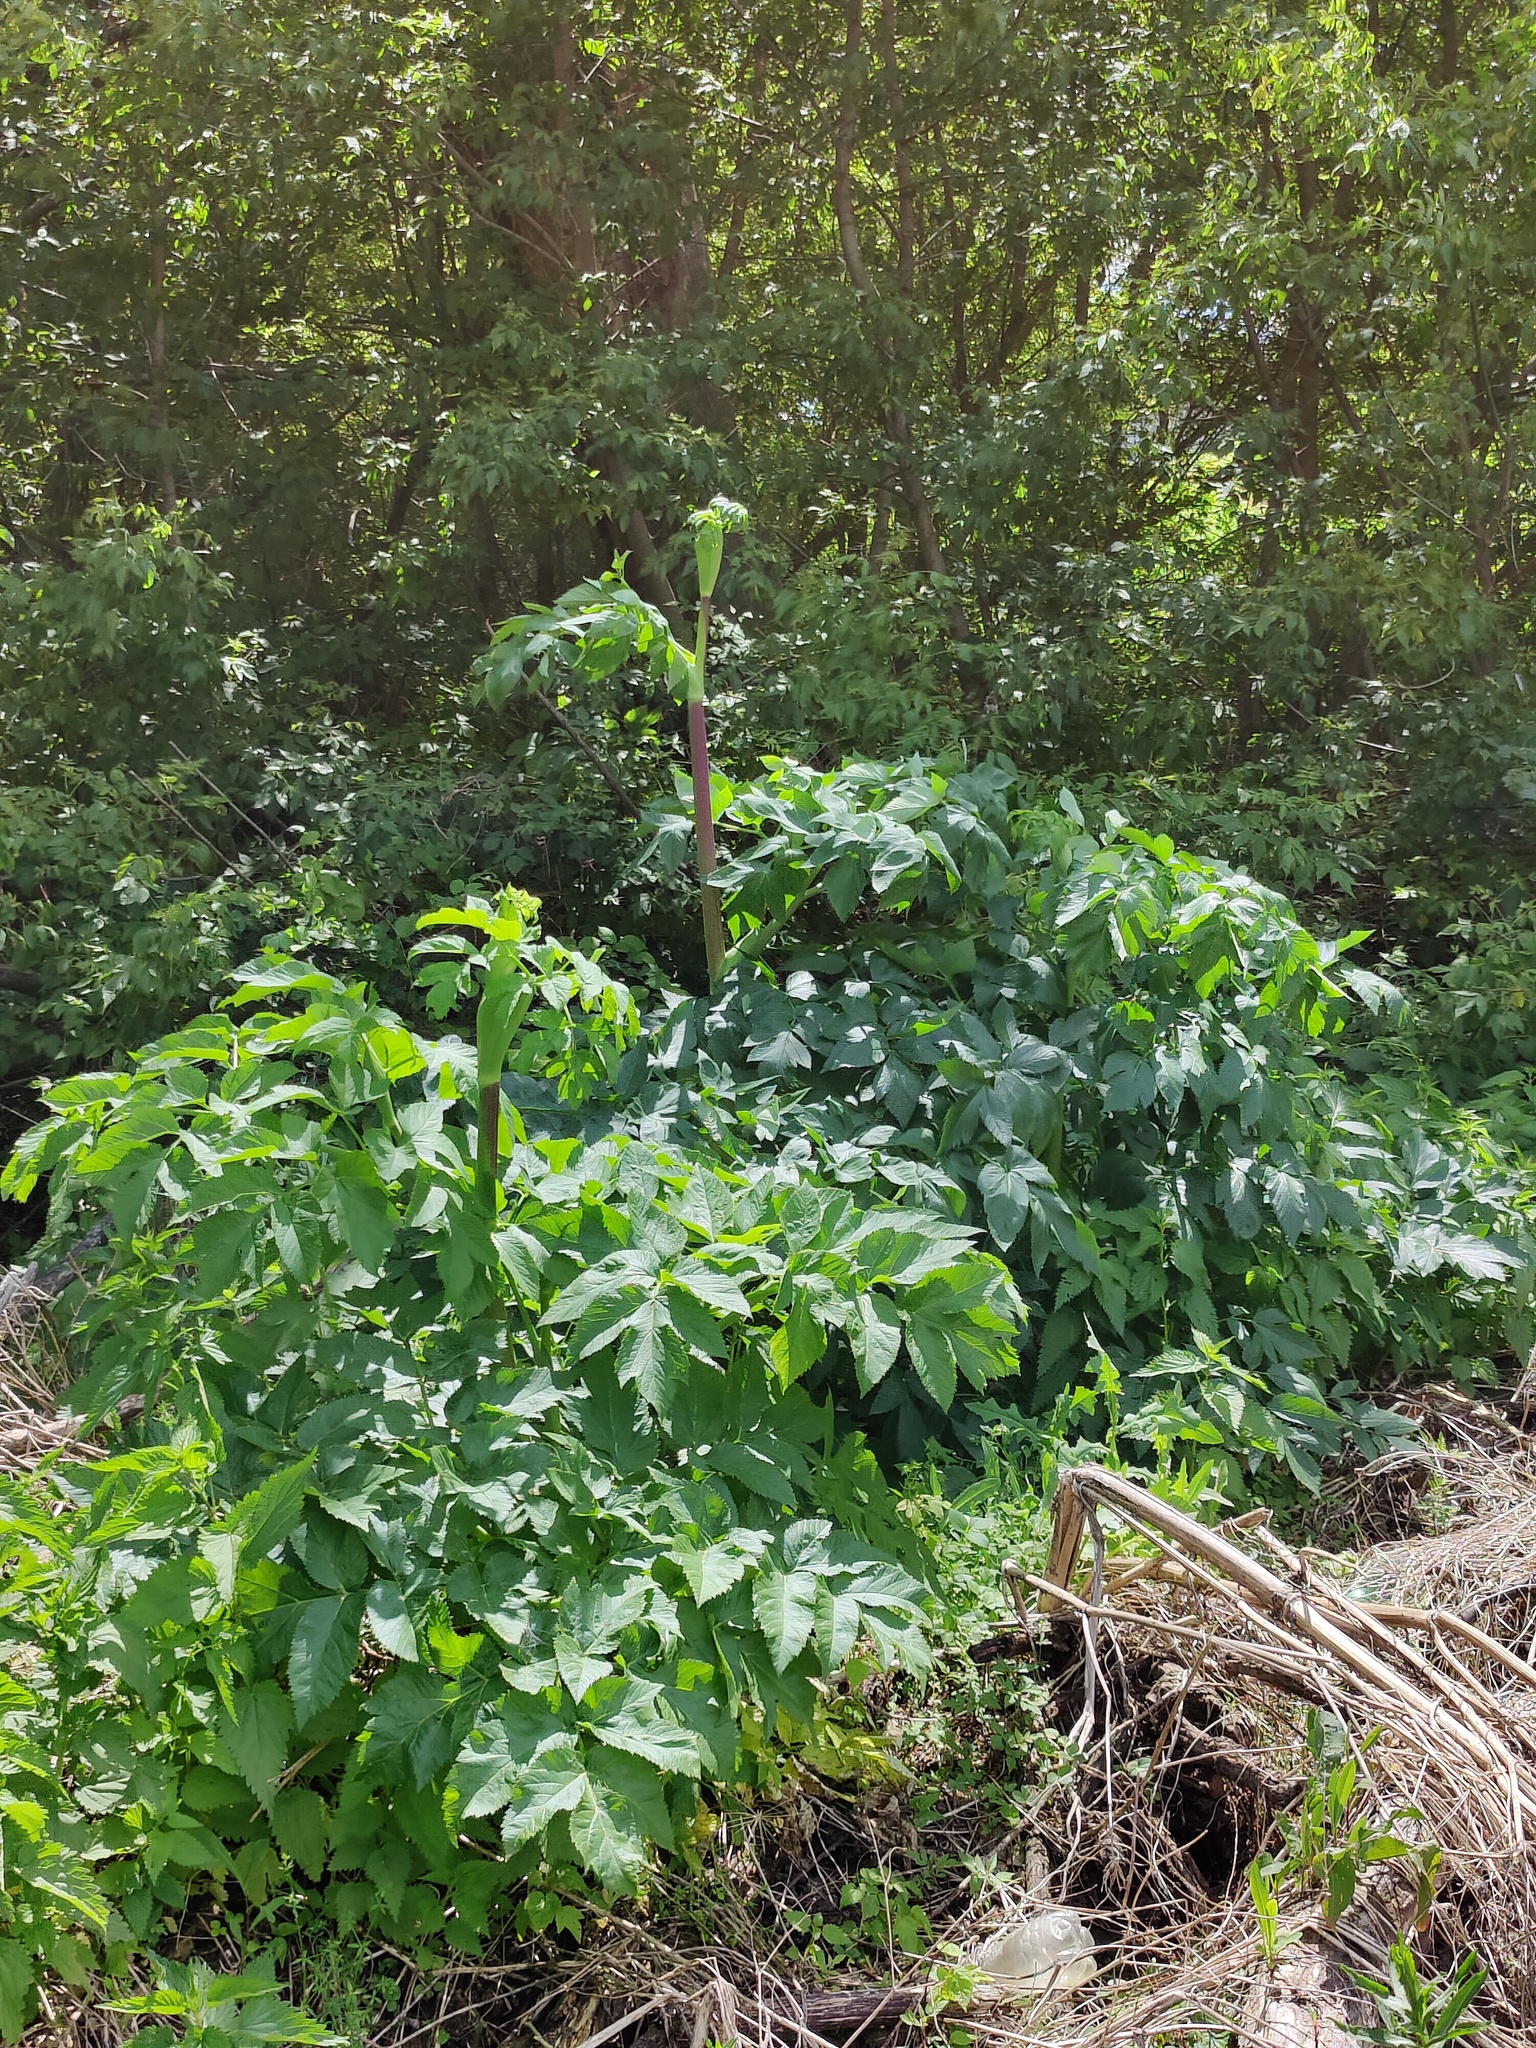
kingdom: Plantae
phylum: Tracheophyta
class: Magnoliopsida
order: Apiales
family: Apiaceae
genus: Angelica
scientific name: Angelica archangelica
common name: Garden angelica
